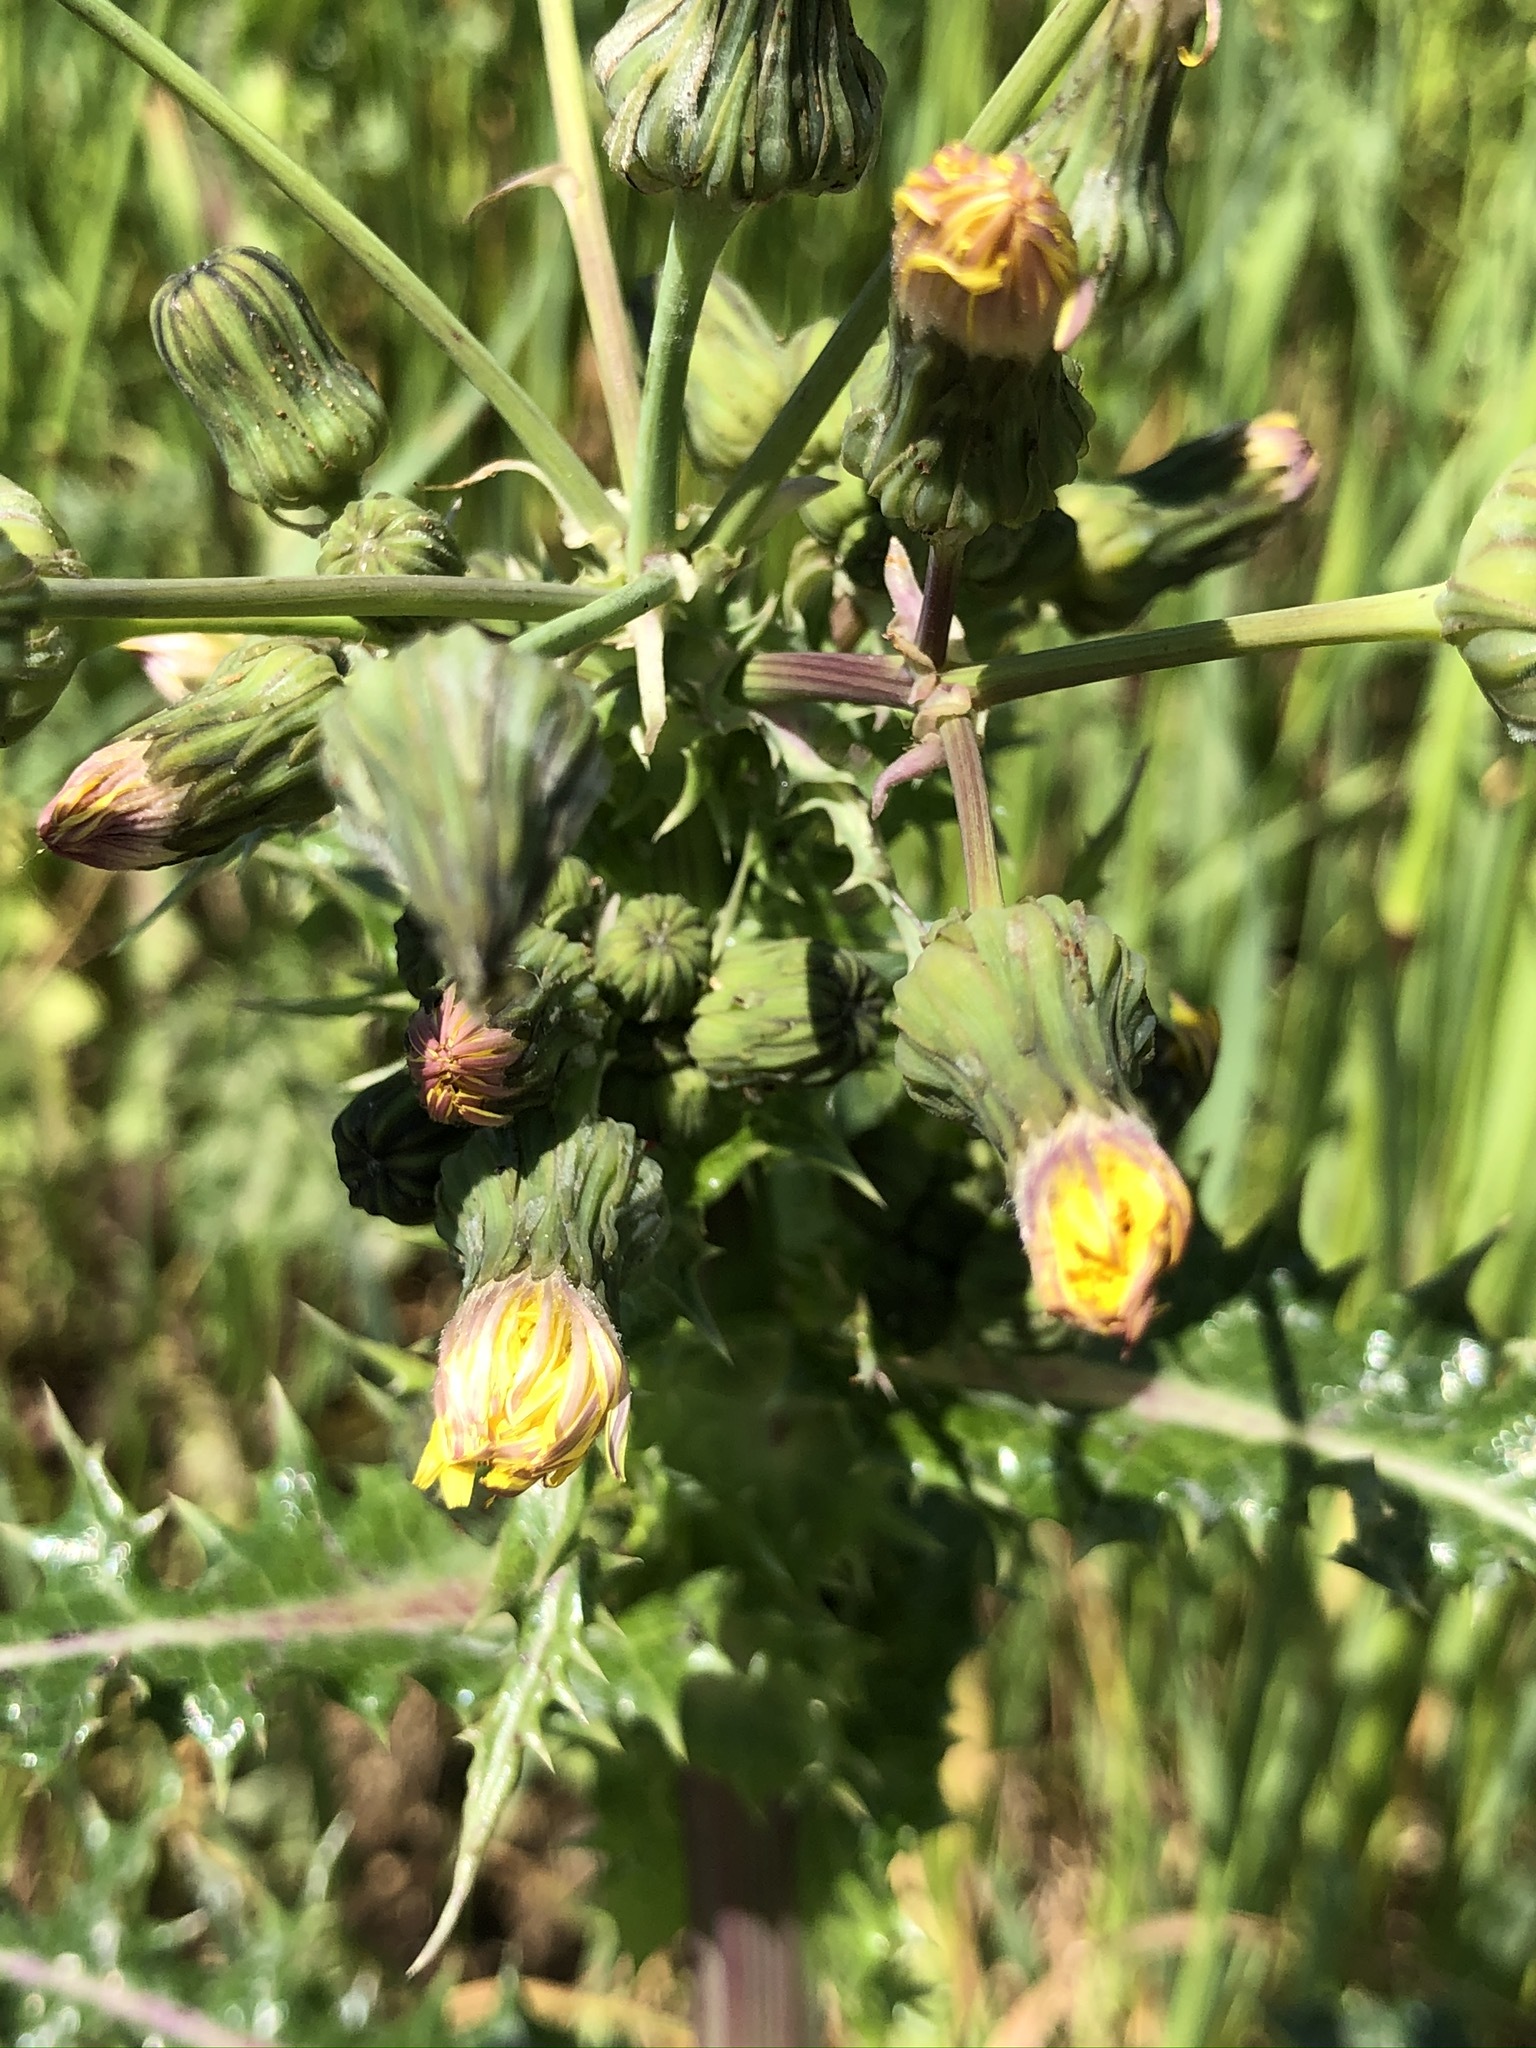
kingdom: Plantae
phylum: Tracheophyta
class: Magnoliopsida
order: Asterales
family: Asteraceae
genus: Sonchus
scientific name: Sonchus asper
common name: Prickly sow-thistle
